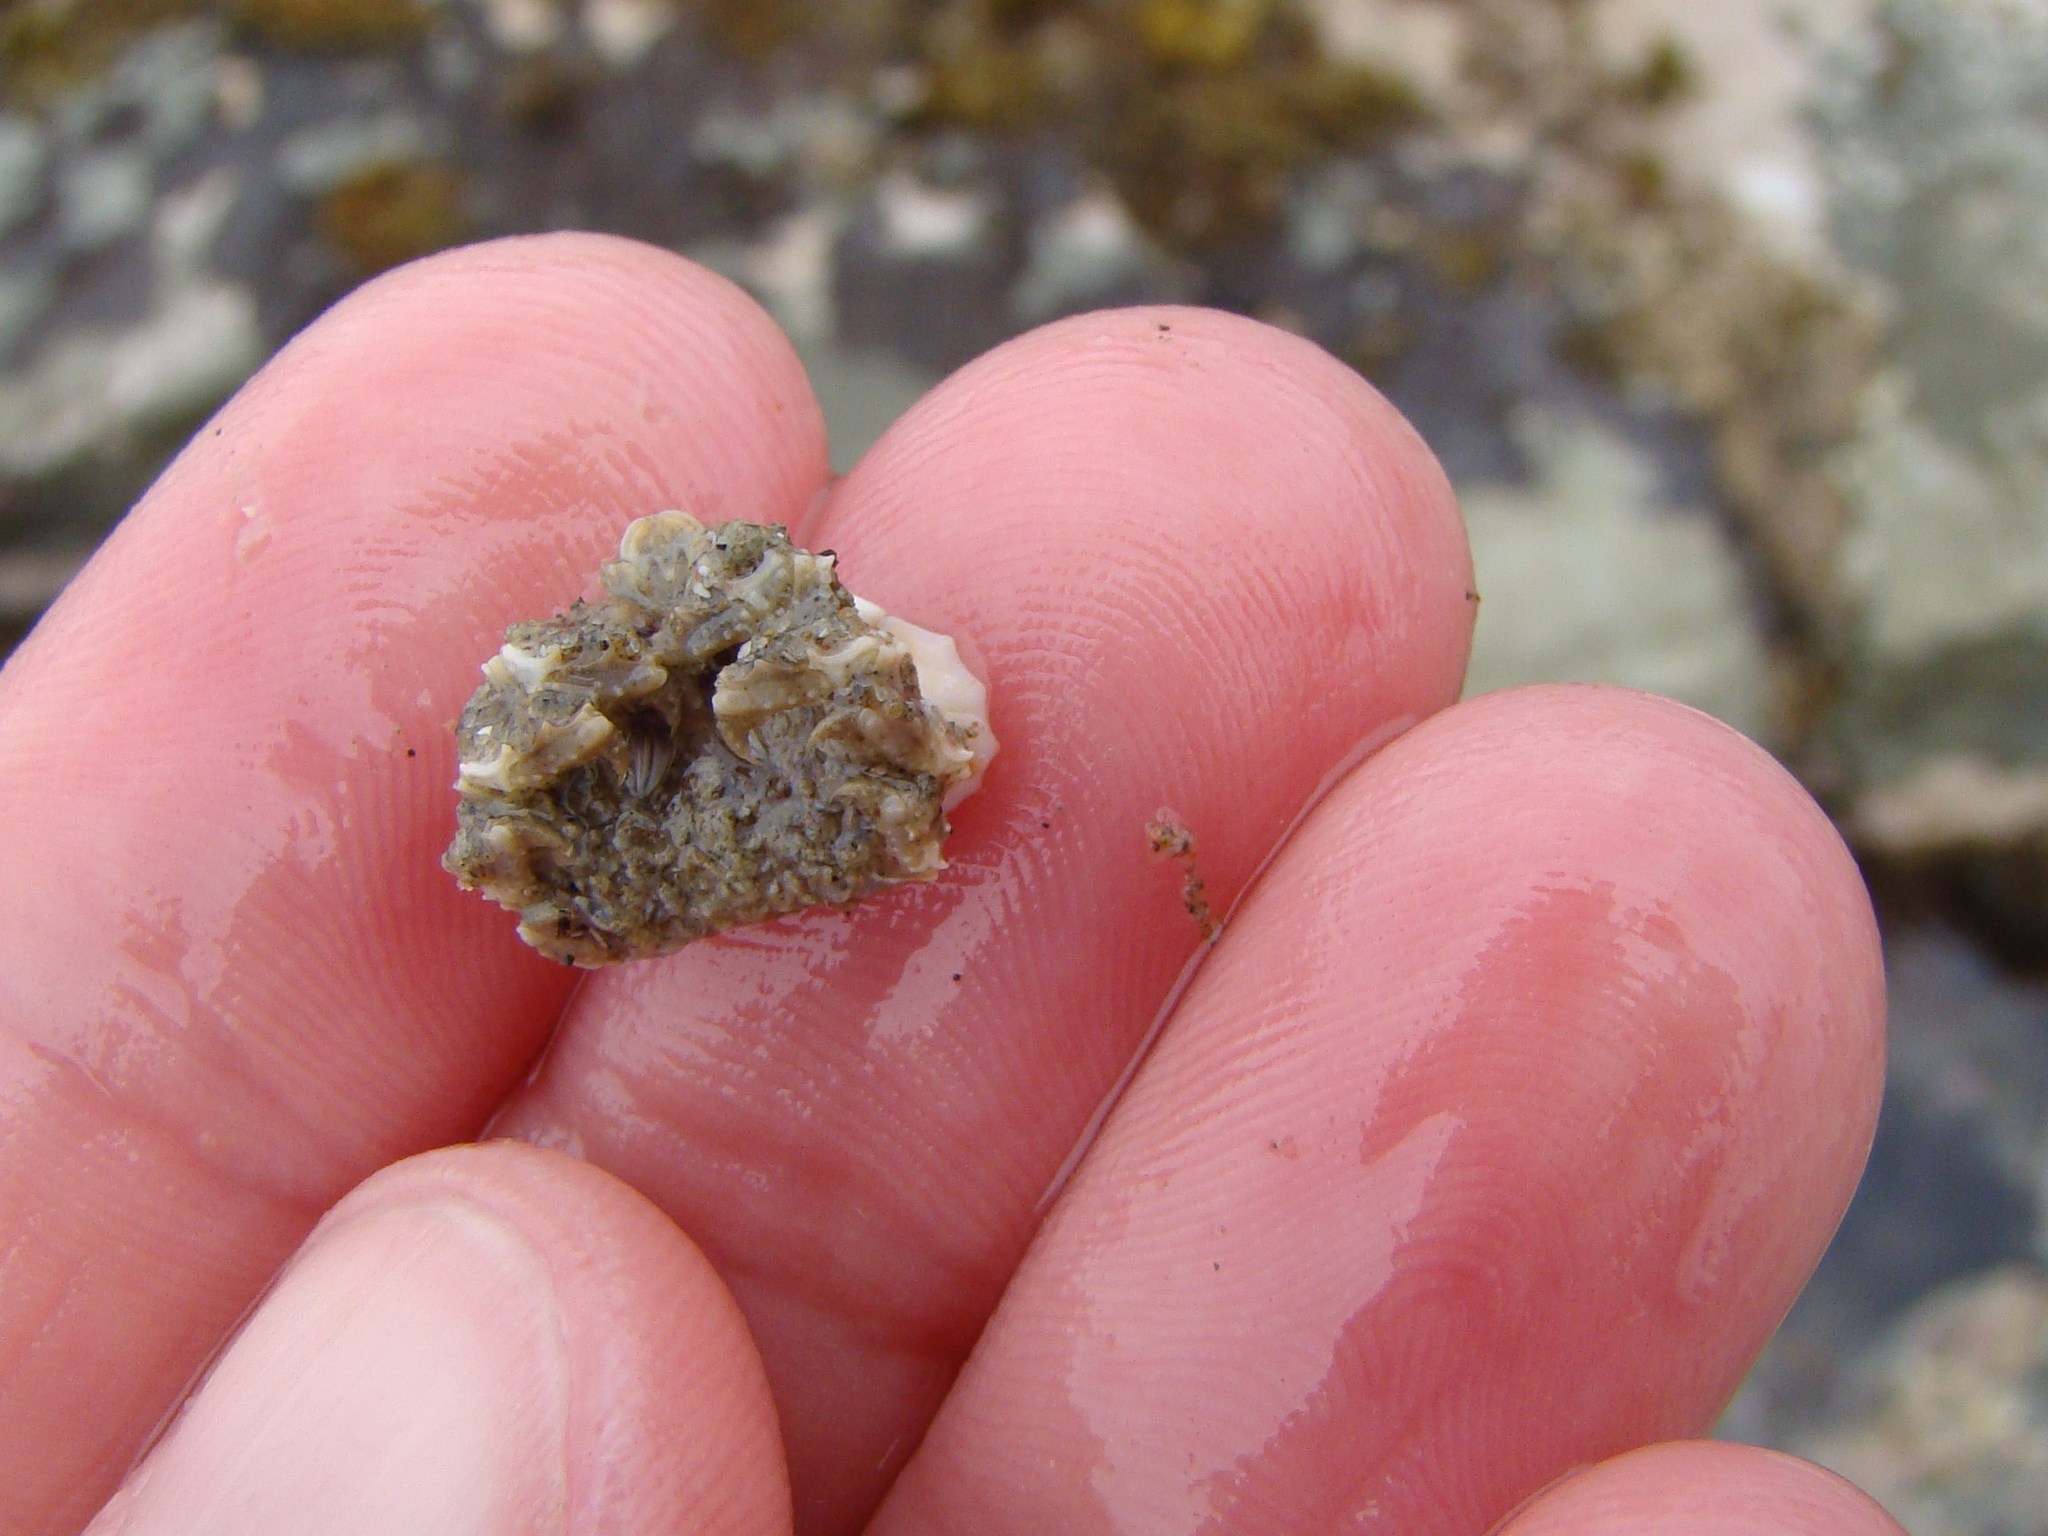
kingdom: Animalia
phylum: Arthropoda
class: Malacostraca
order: Decapoda
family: Majidae
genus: Eurynolambrus
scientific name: Eurynolambrus australis
